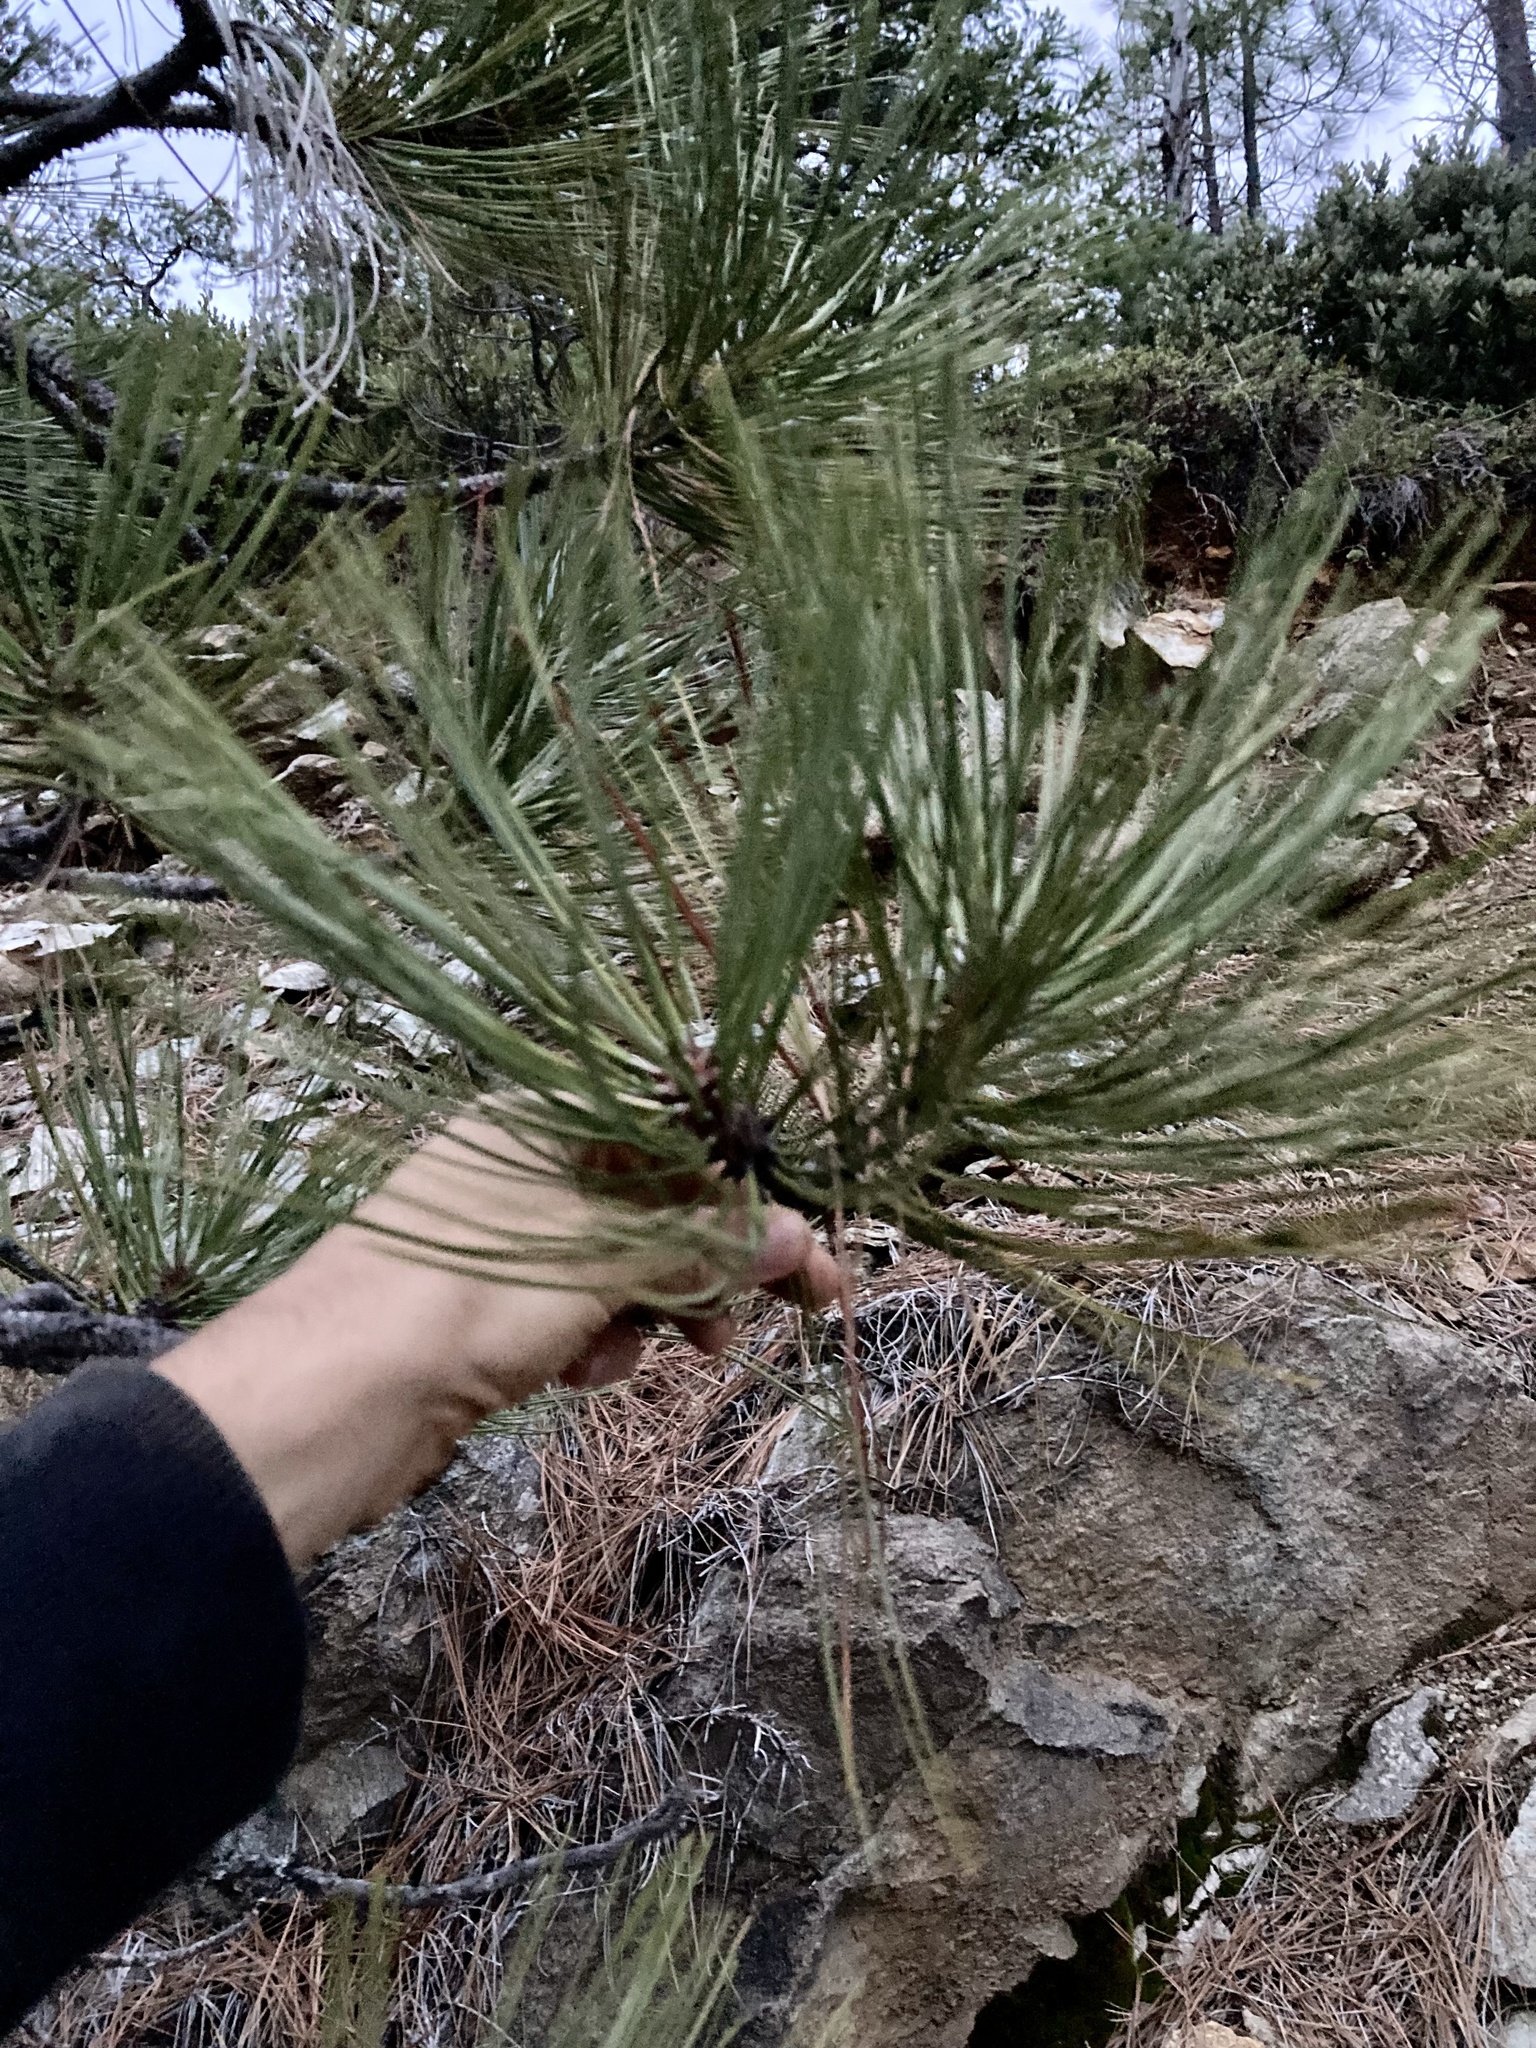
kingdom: Plantae
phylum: Tracheophyta
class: Pinopsida
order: Pinales
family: Pinaceae
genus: Pinus
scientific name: Pinus jeffreyi
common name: Jeffrey pine
